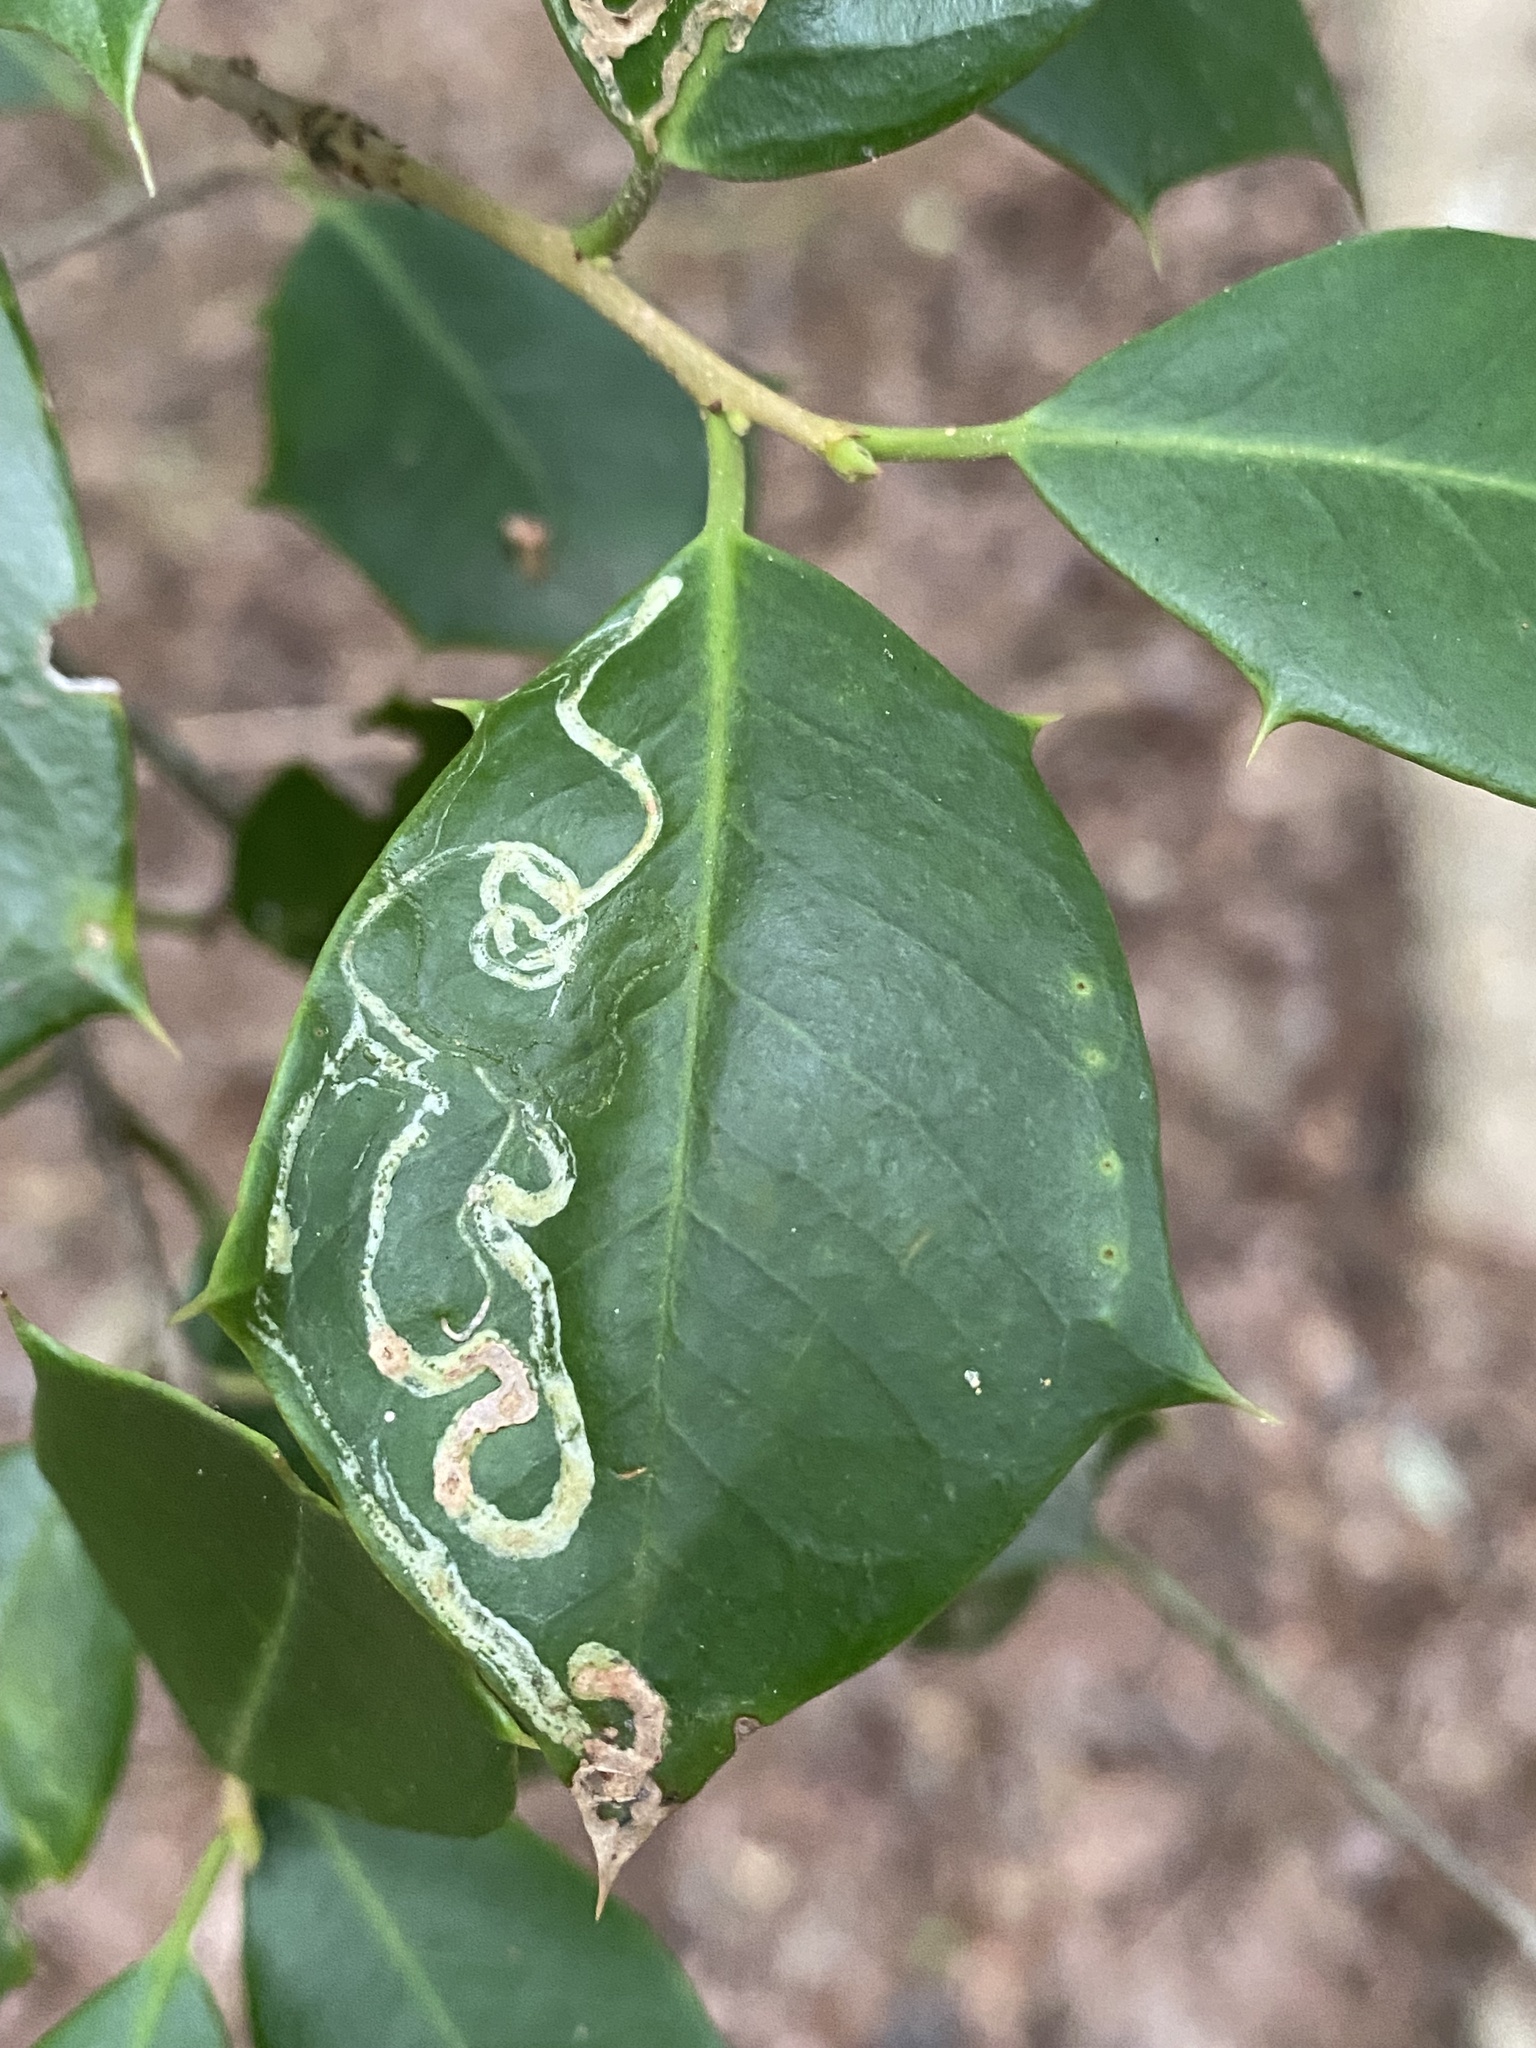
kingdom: Animalia
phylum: Arthropoda
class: Insecta
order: Diptera
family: Agromyzidae
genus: Phytomyza
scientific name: Phytomyza opacae
